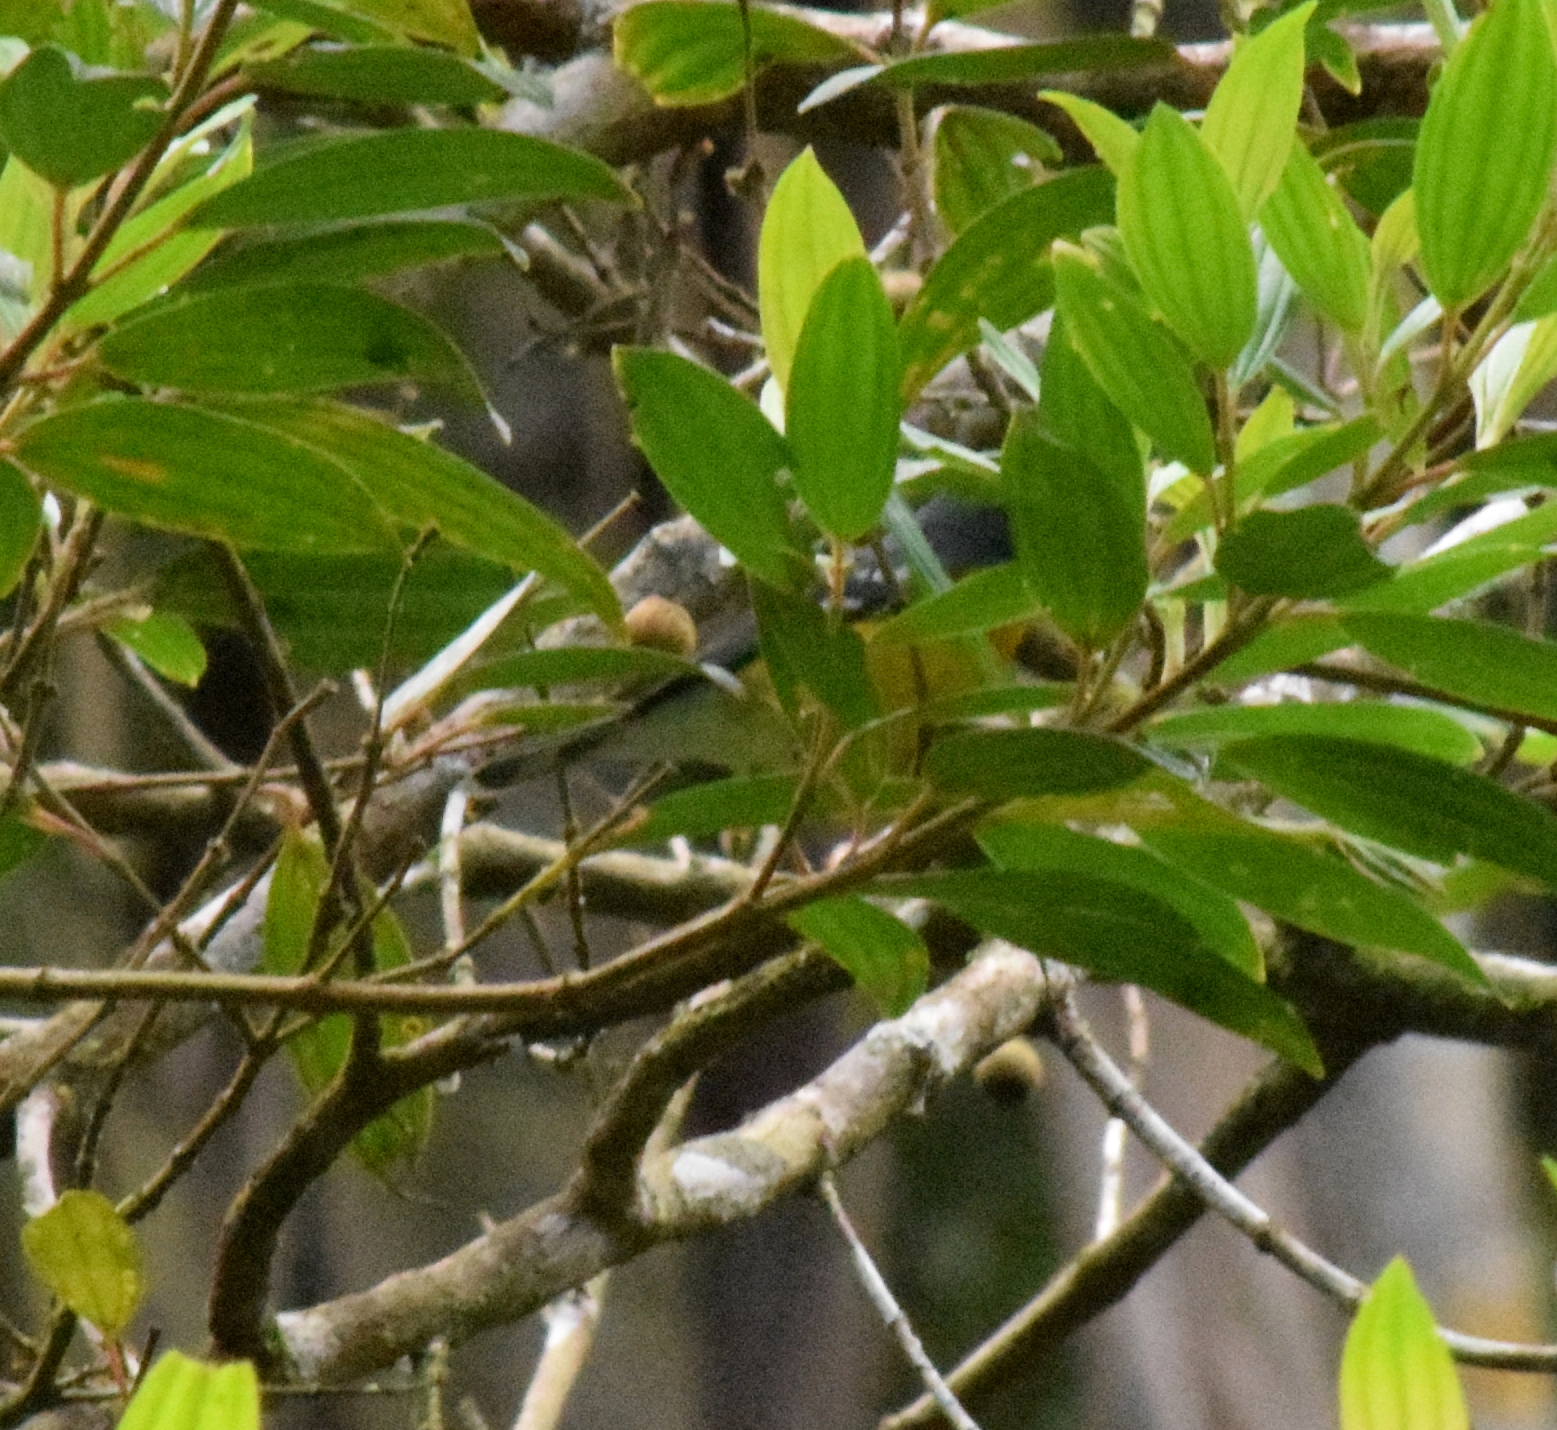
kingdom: Animalia
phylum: Chordata
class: Aves
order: Passeriformes
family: Parulidae
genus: Setophaga
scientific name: Setophaga pitiayumi
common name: Tropical parula
